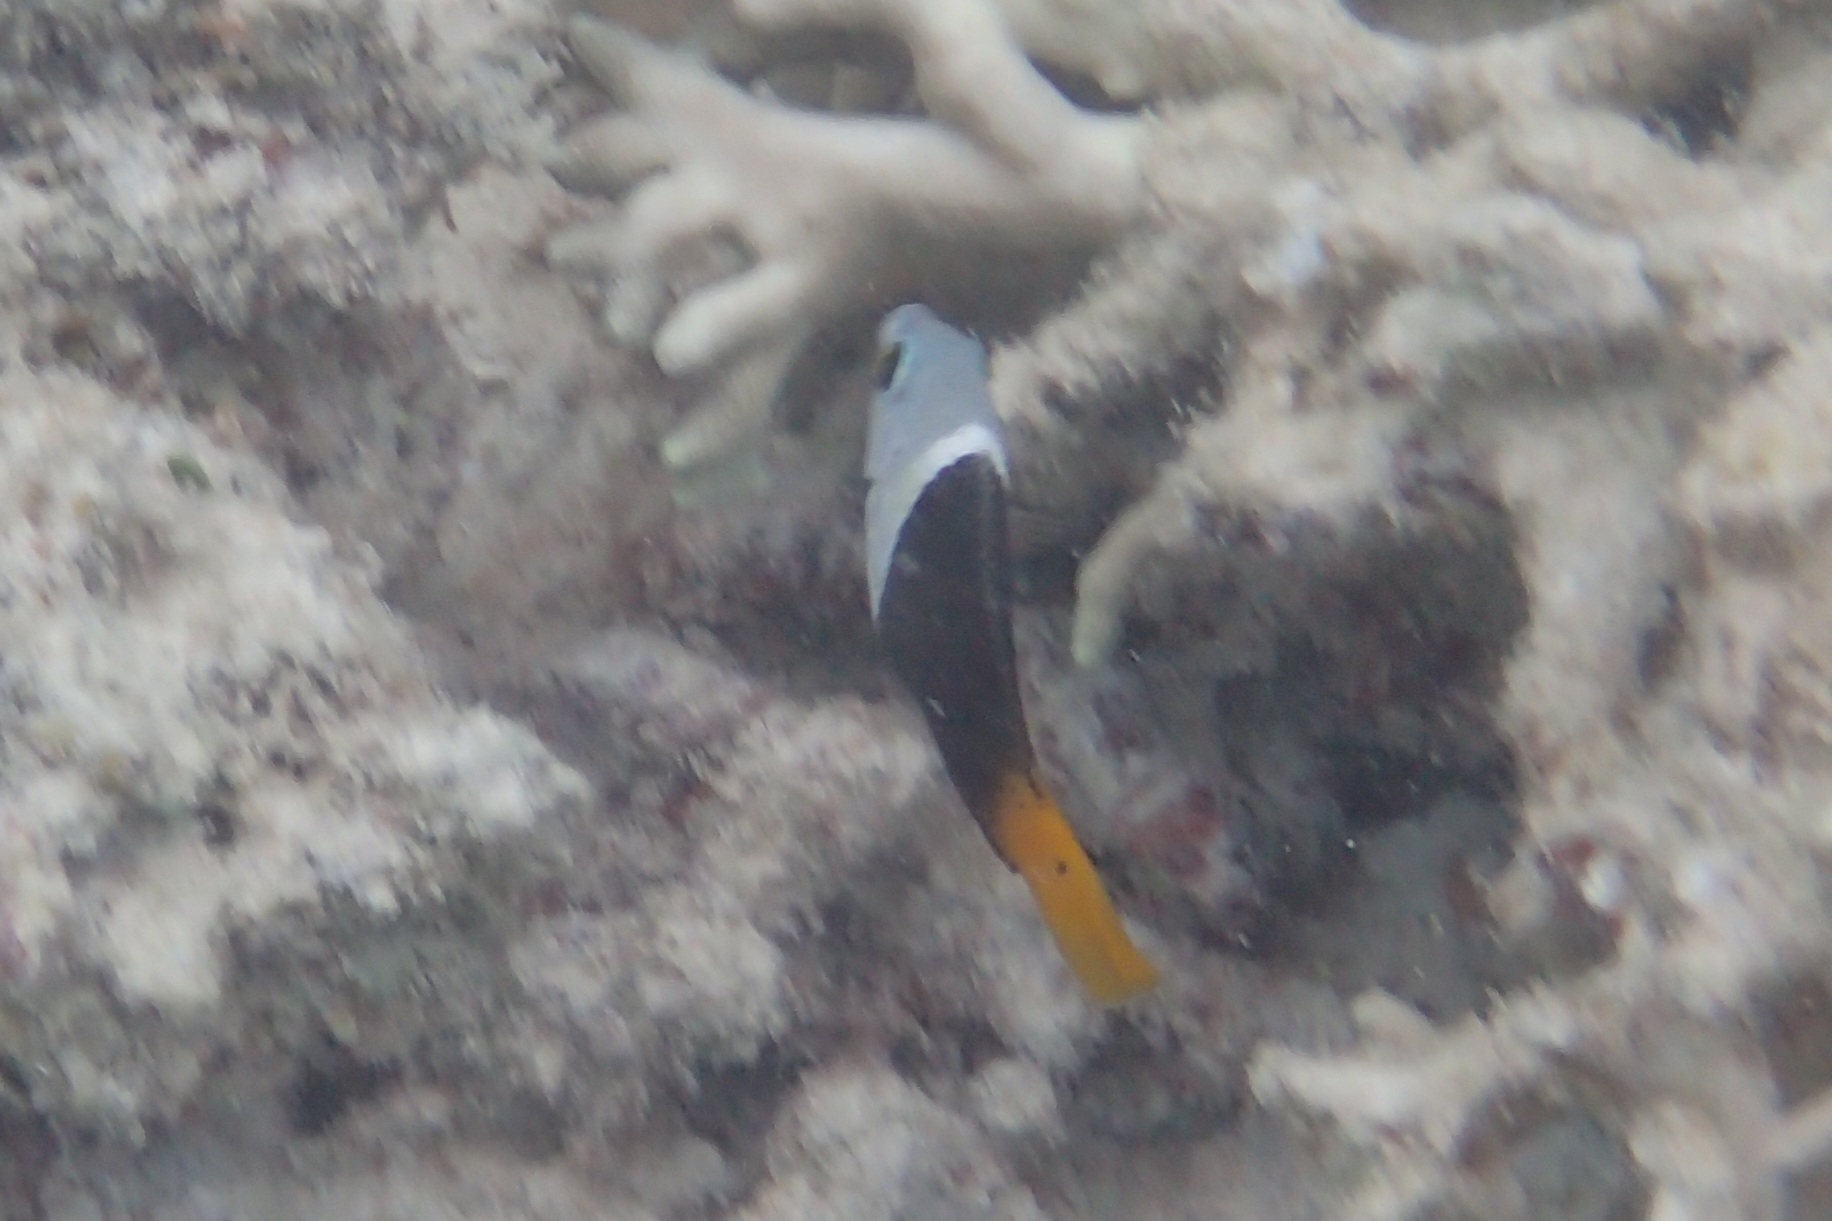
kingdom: Animalia
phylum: Chordata
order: Perciformes
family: Labridae
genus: Hemigymnus
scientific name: Hemigymnus melapterus
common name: Blackeye thicklip
